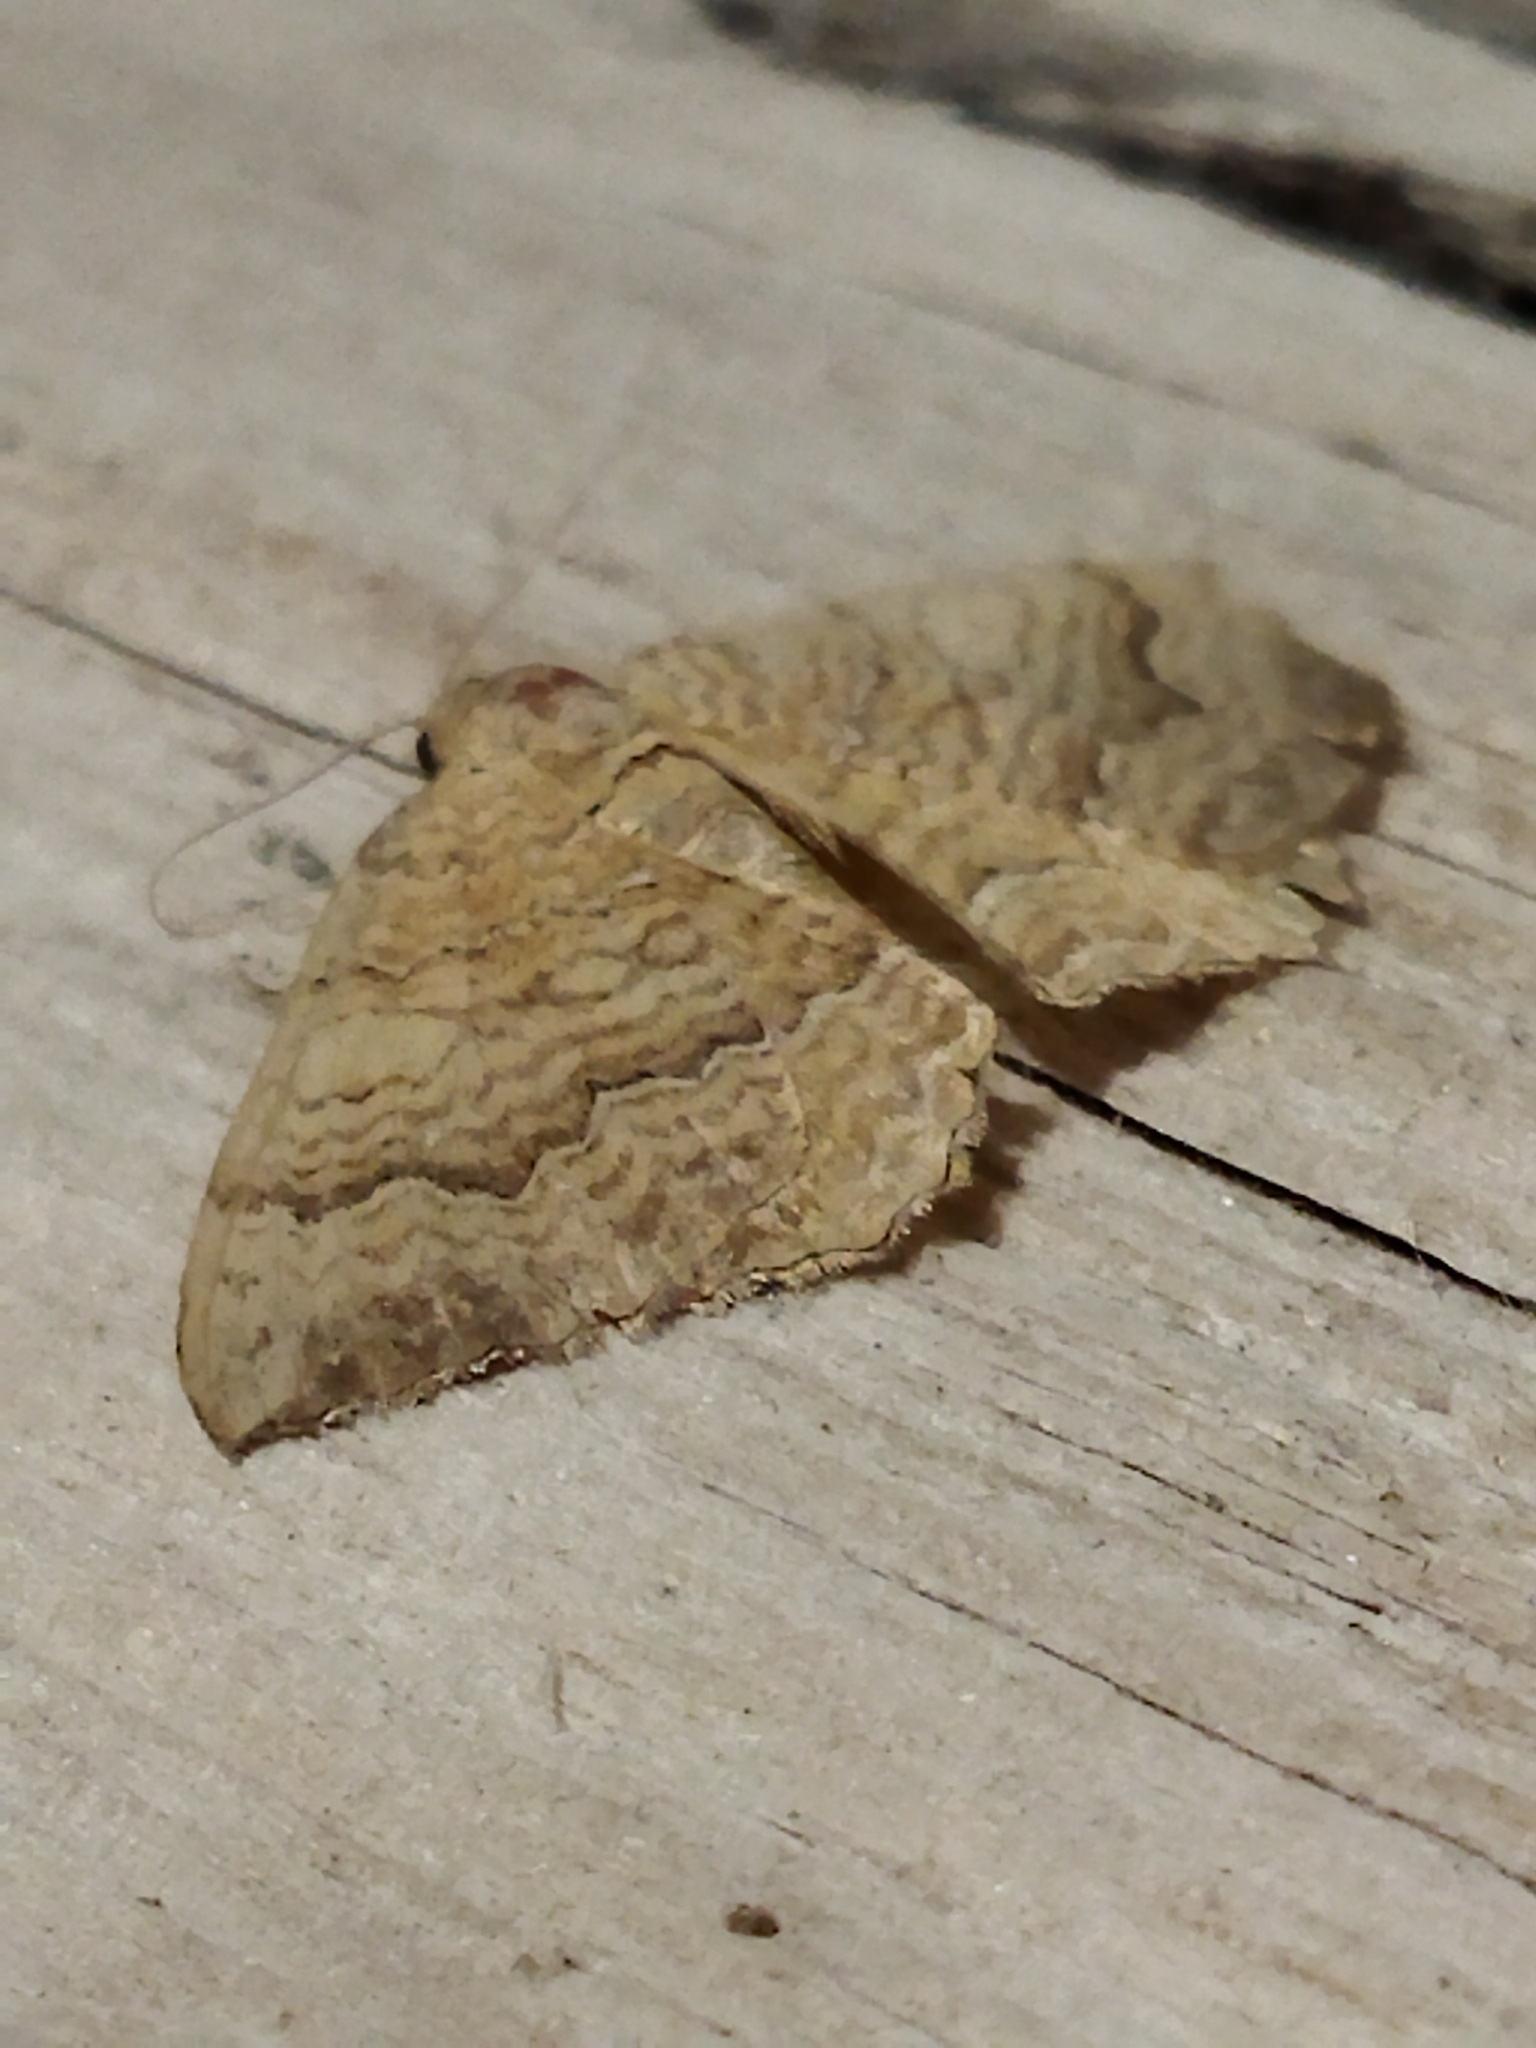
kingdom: Animalia
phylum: Arthropoda
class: Insecta
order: Lepidoptera
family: Geometridae
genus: Camptogramma
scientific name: Camptogramma bilineata
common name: Yellow shell
